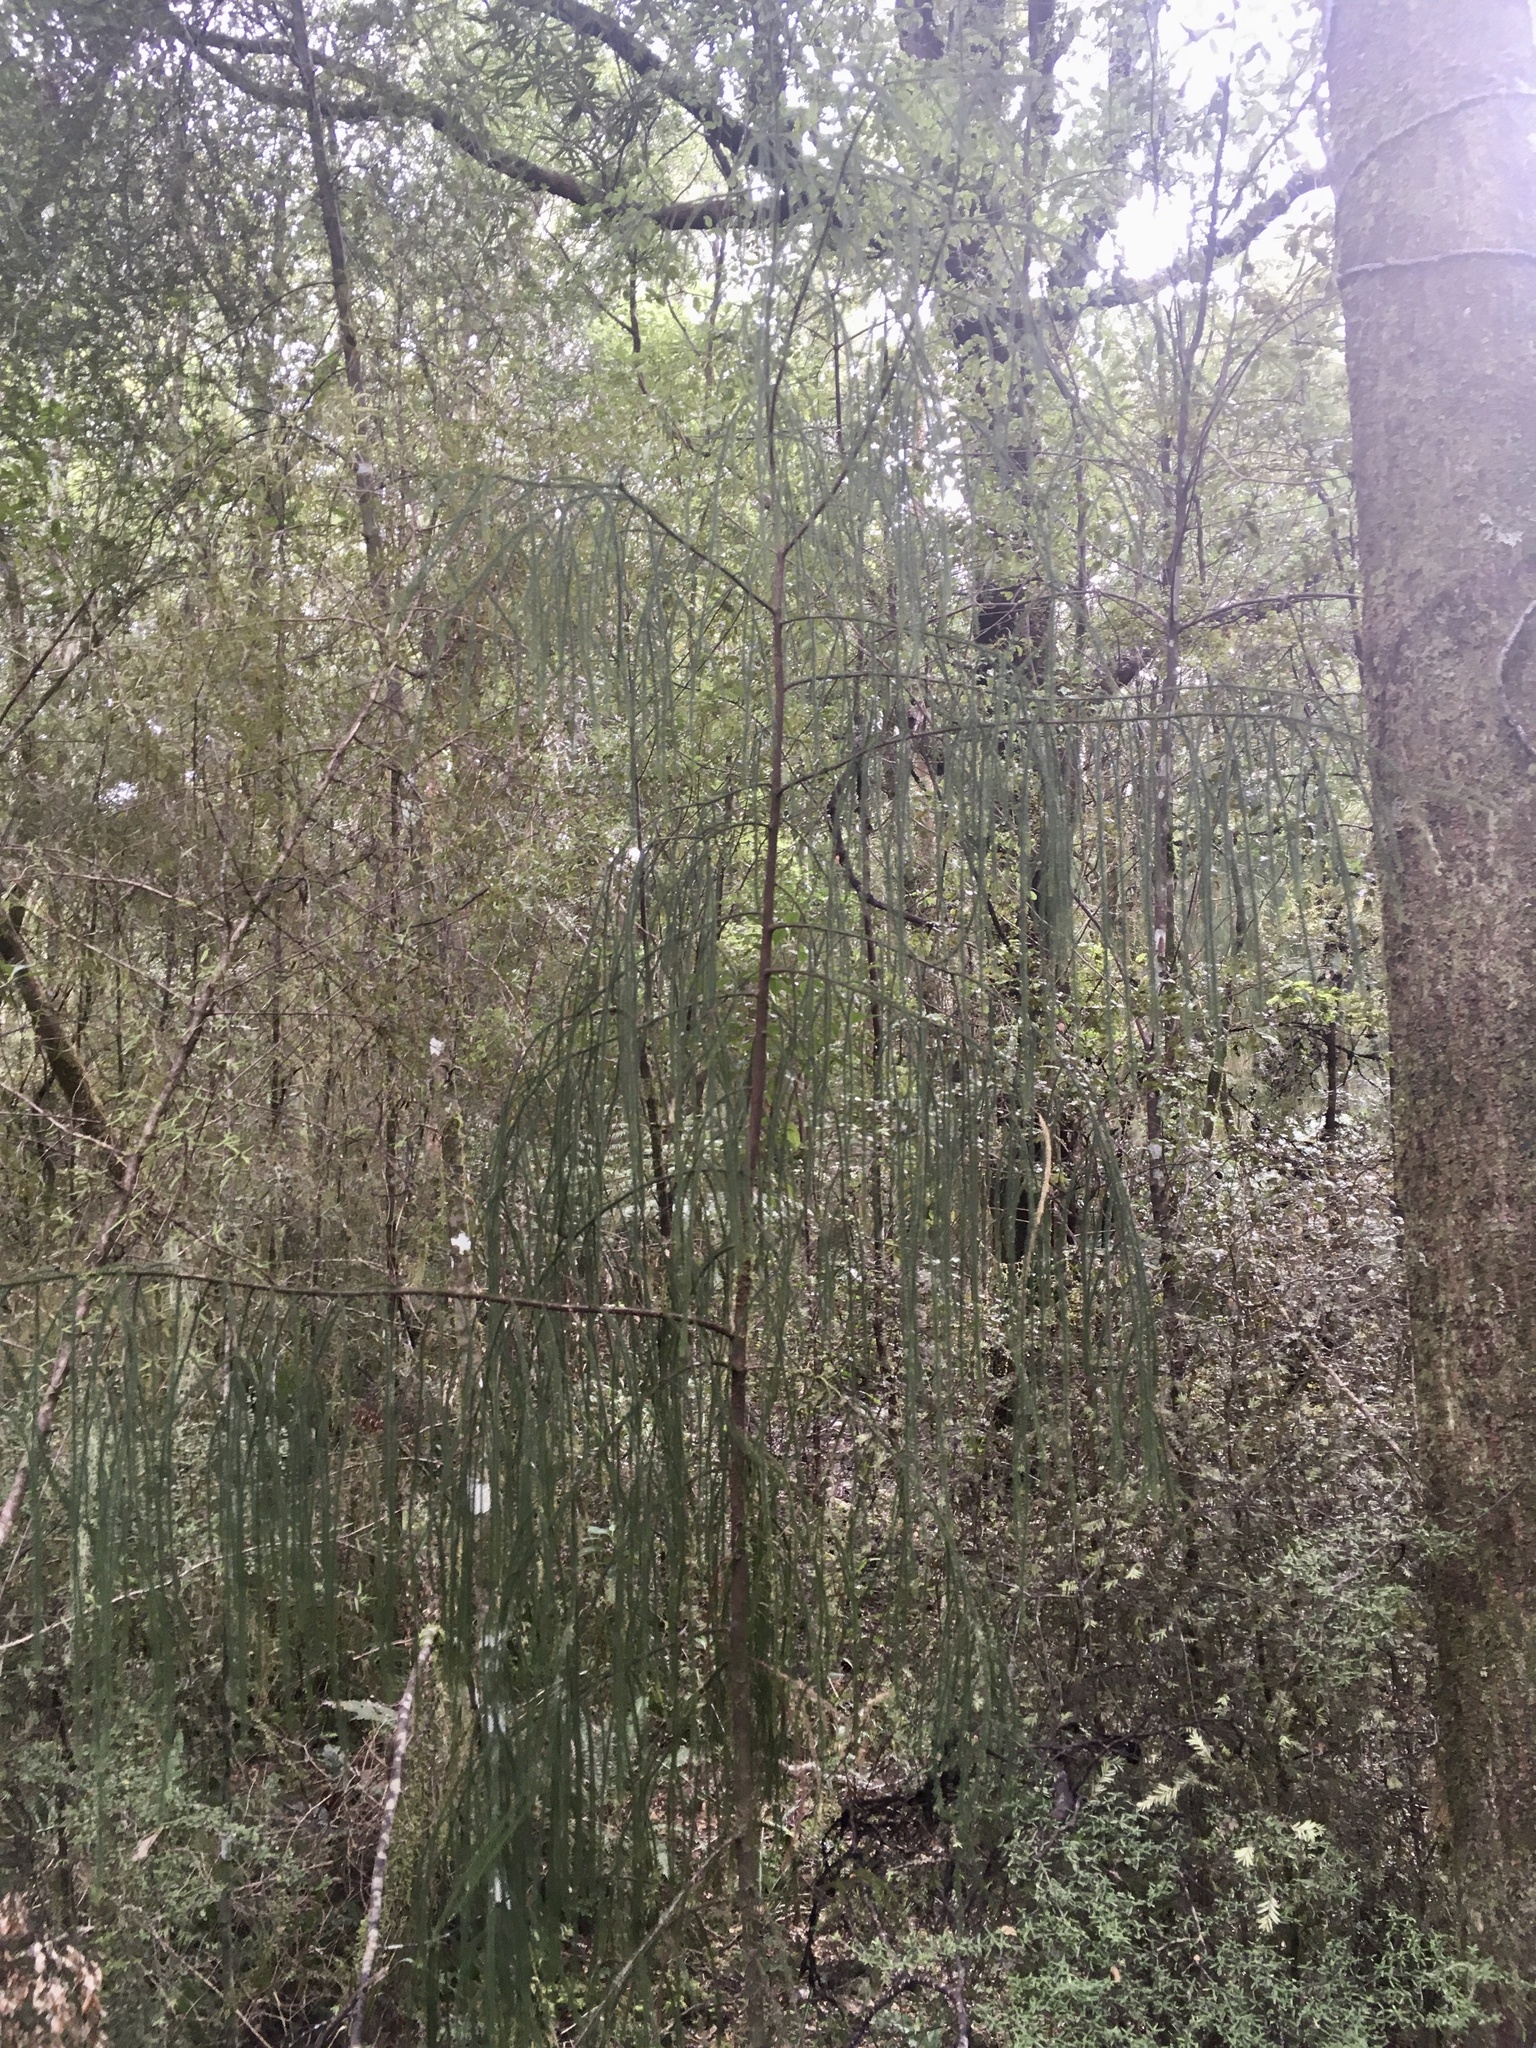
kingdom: Plantae
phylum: Tracheophyta
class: Pinopsida
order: Pinales
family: Podocarpaceae
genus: Dacrydium
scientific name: Dacrydium cupressinum
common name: Red pine
